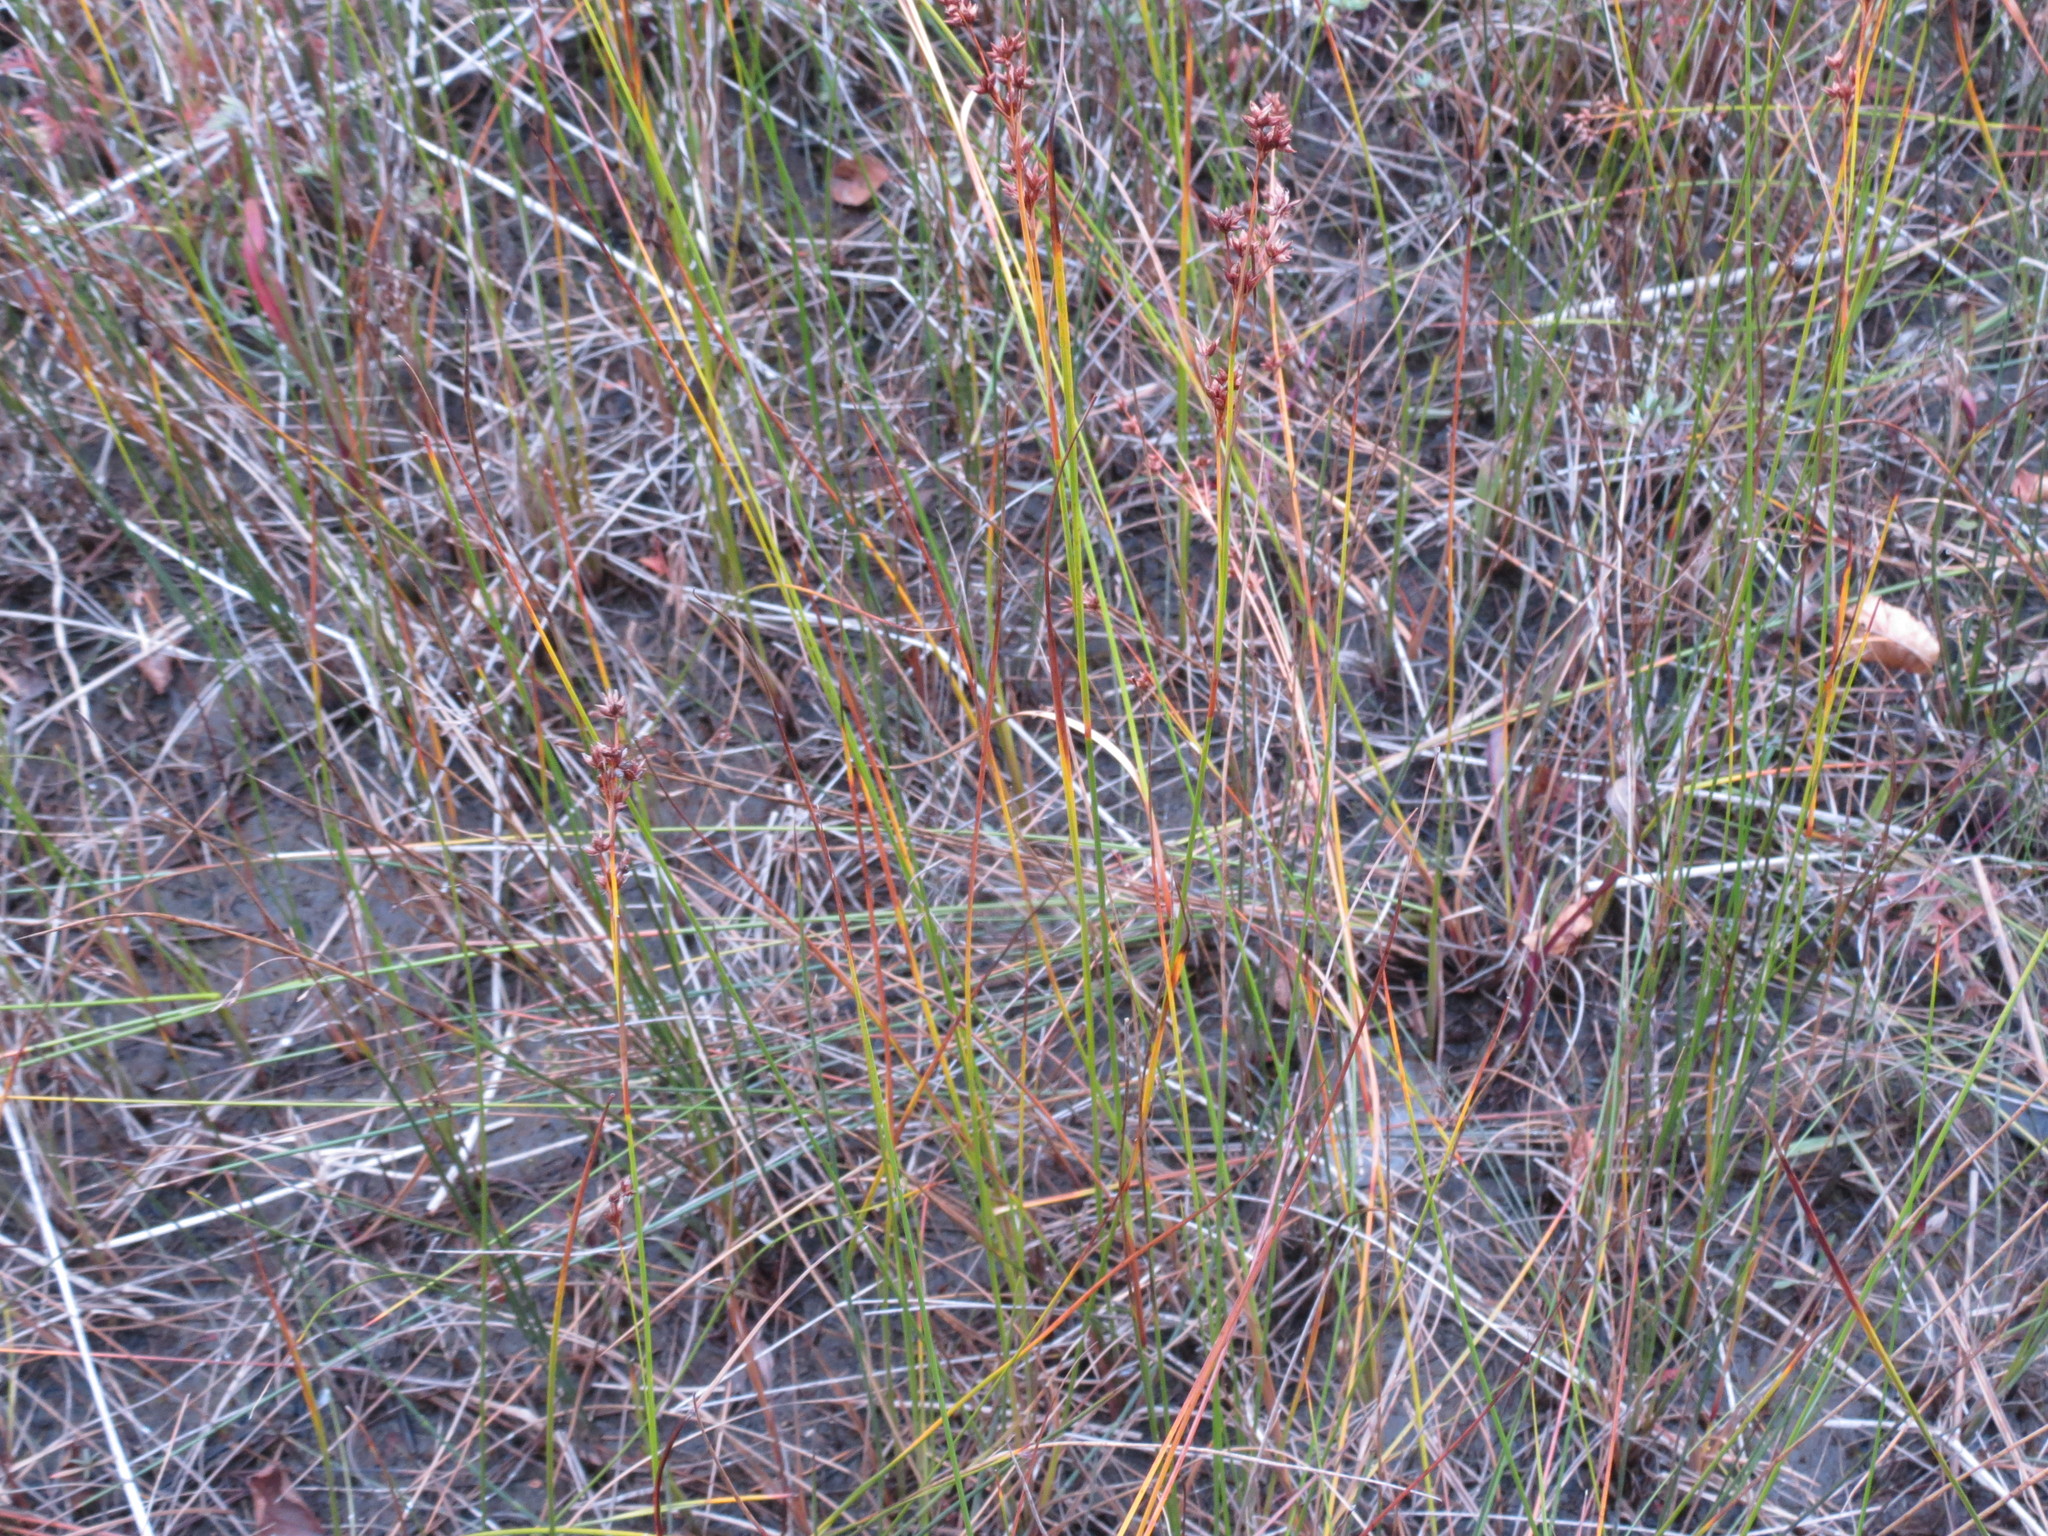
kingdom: Plantae
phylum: Tracheophyta
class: Liliopsida
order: Poales
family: Cyperaceae
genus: Cladium
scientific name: Cladium mariscoides
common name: Smooth sawgrass
